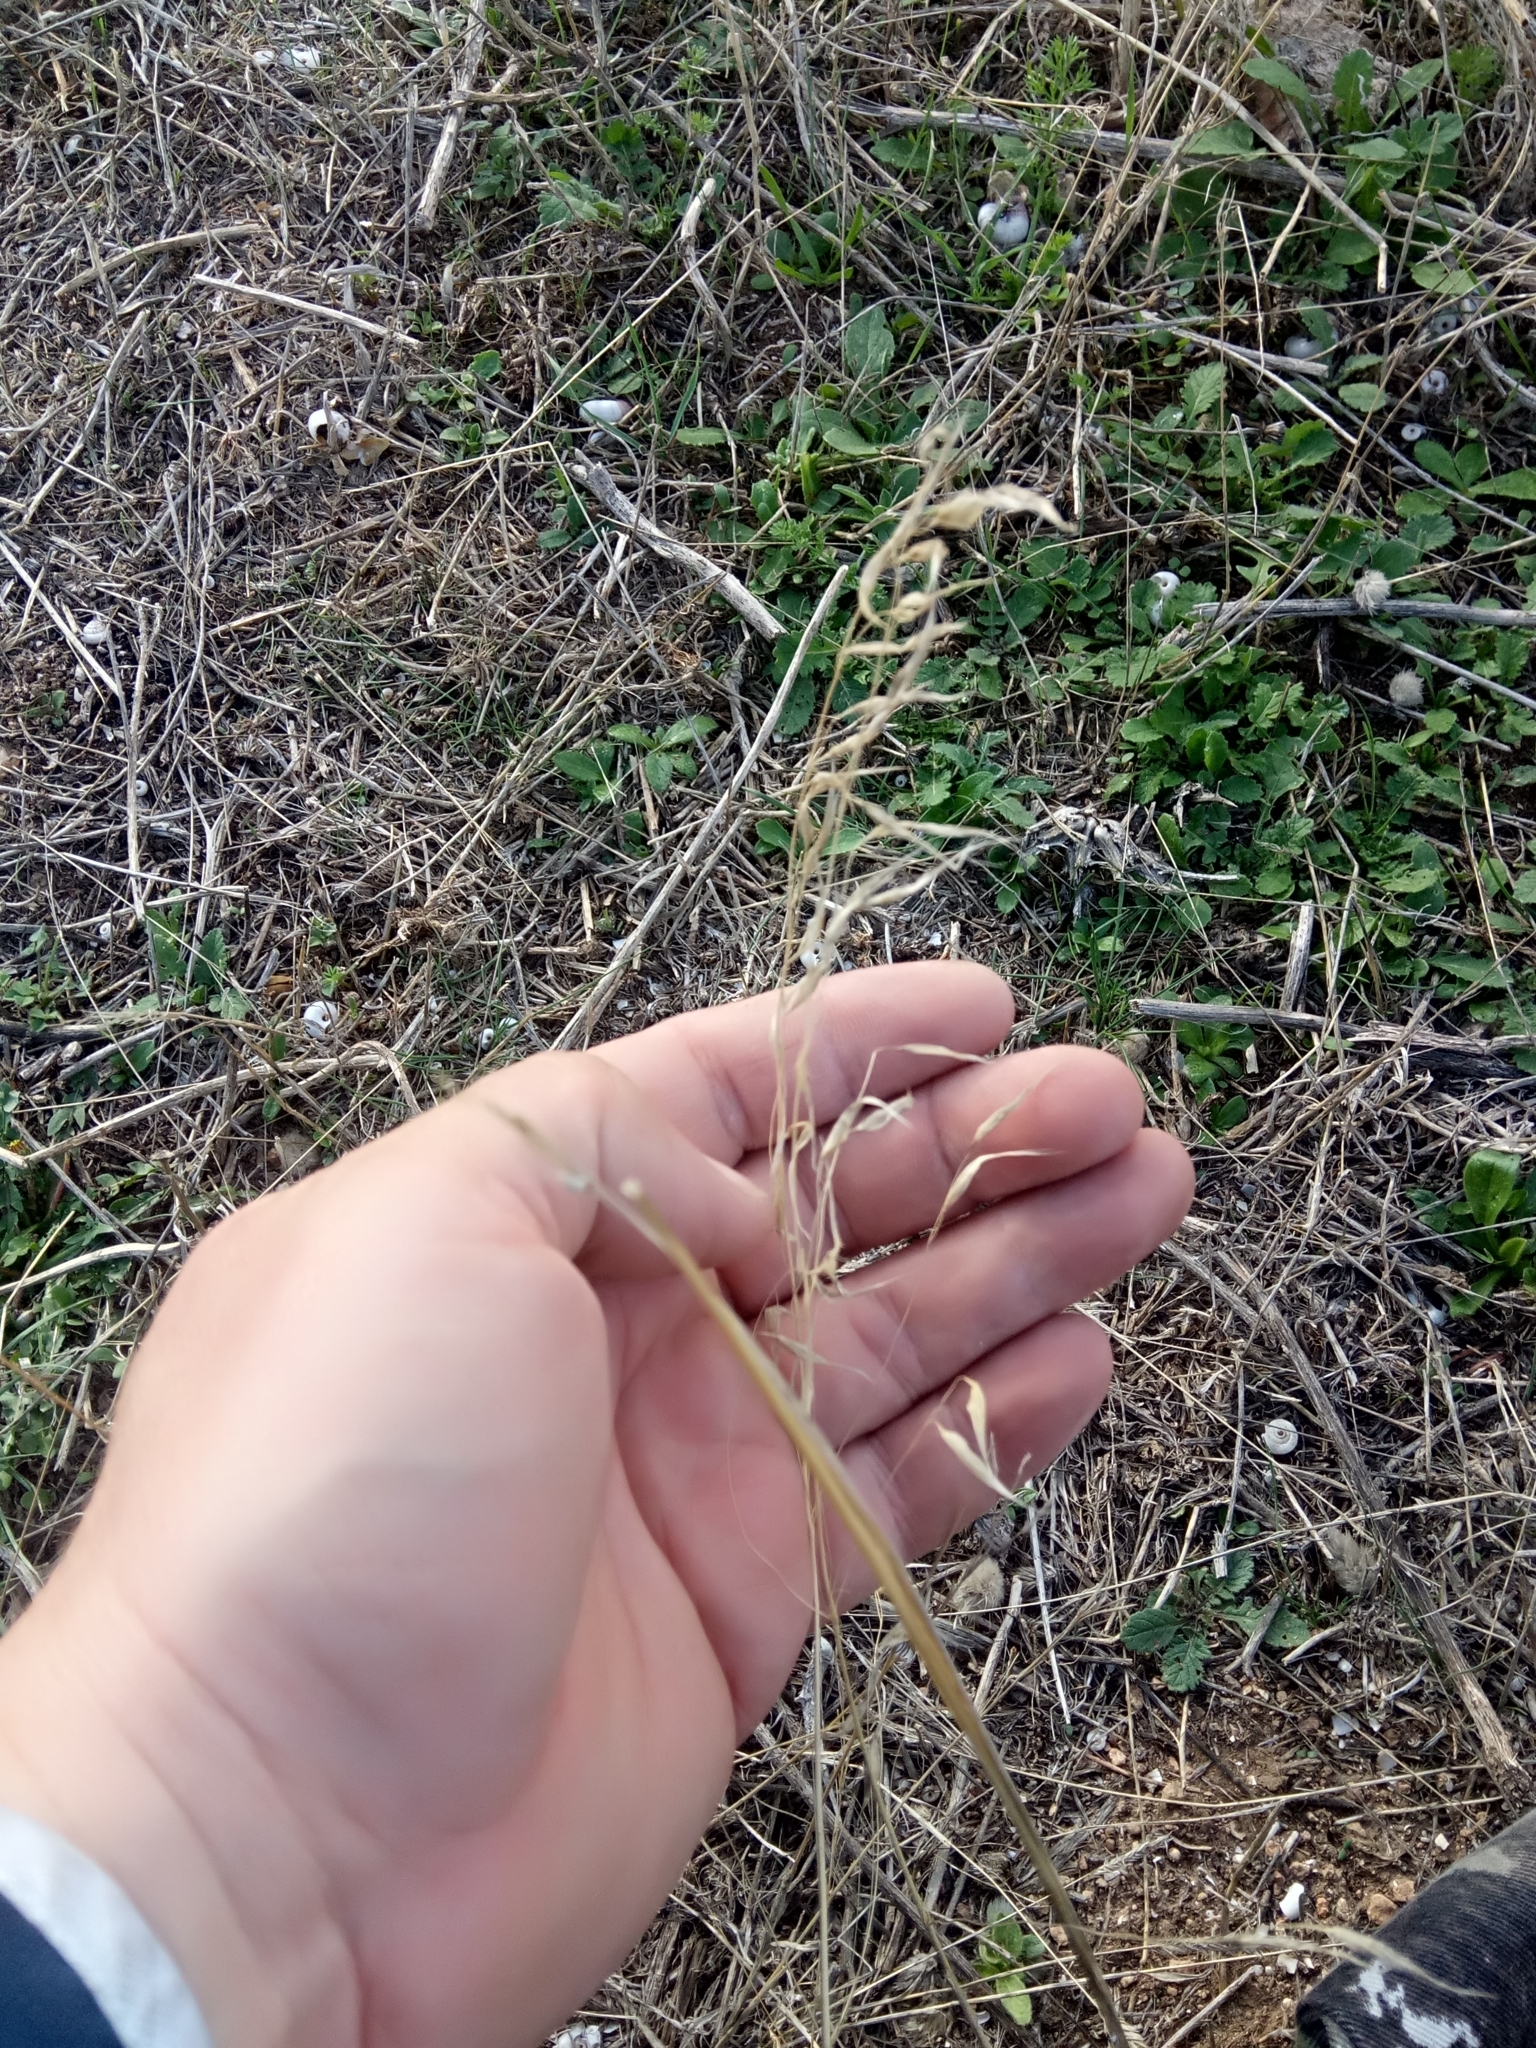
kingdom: Plantae
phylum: Tracheophyta
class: Liliopsida
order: Poales
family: Poaceae
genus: Avena
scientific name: Avena barbata
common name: Slender oat
